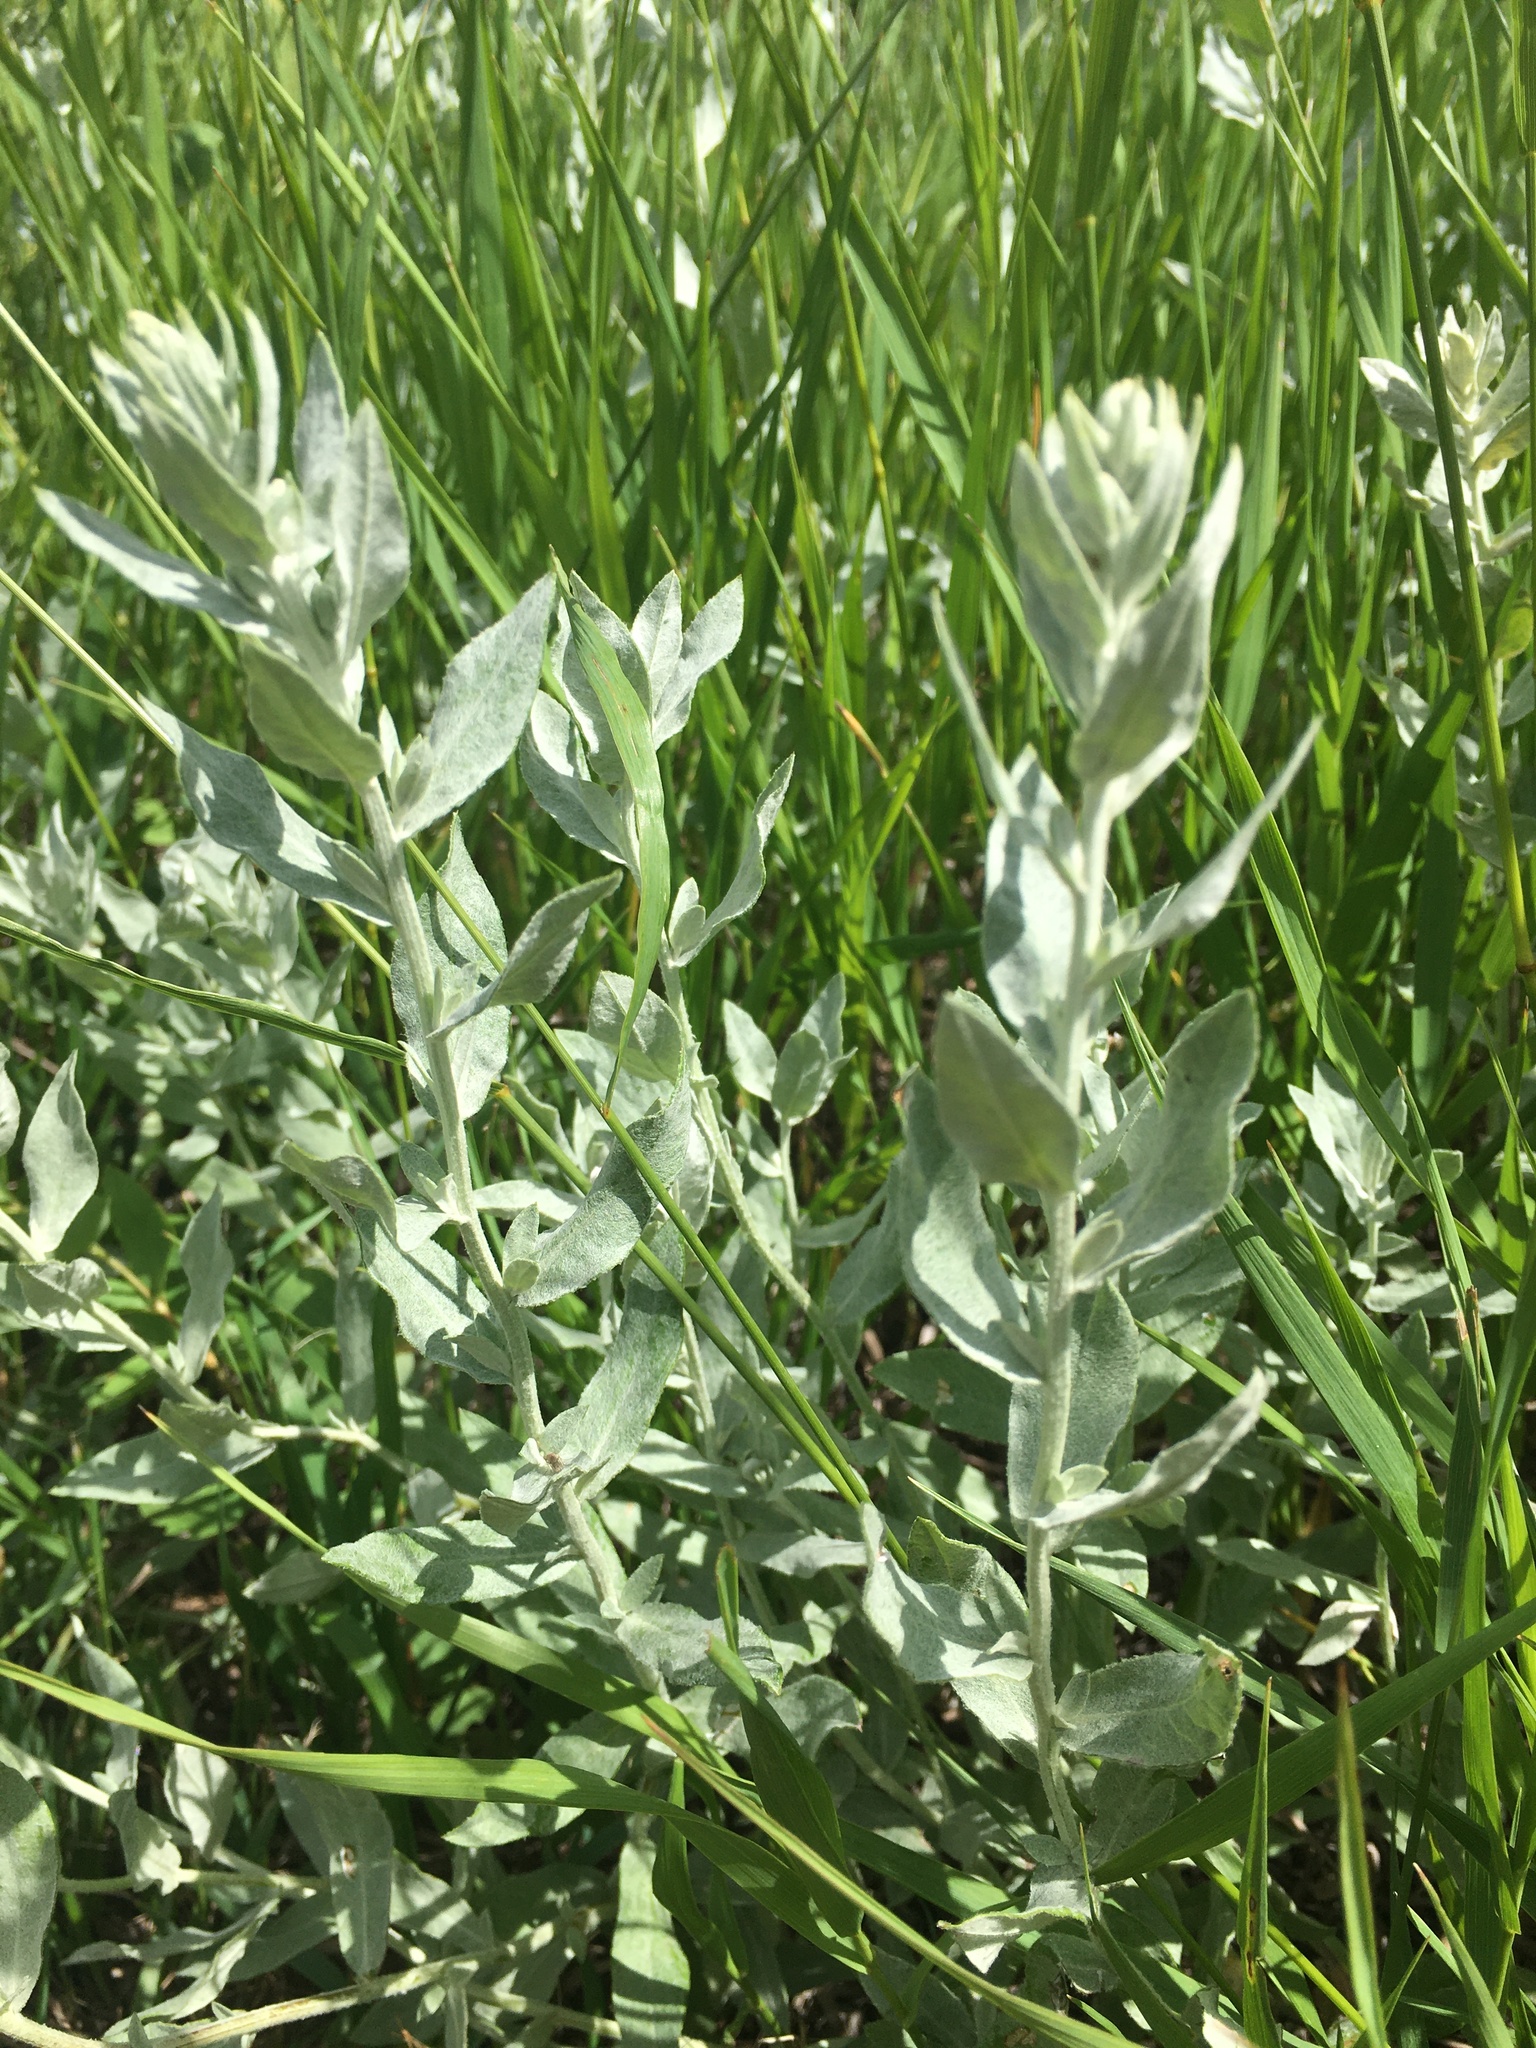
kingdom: Plantae
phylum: Tracheophyta
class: Magnoliopsida
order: Asterales
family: Asteraceae
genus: Artemisia
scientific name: Artemisia ludoviciana
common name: Western mugwort
